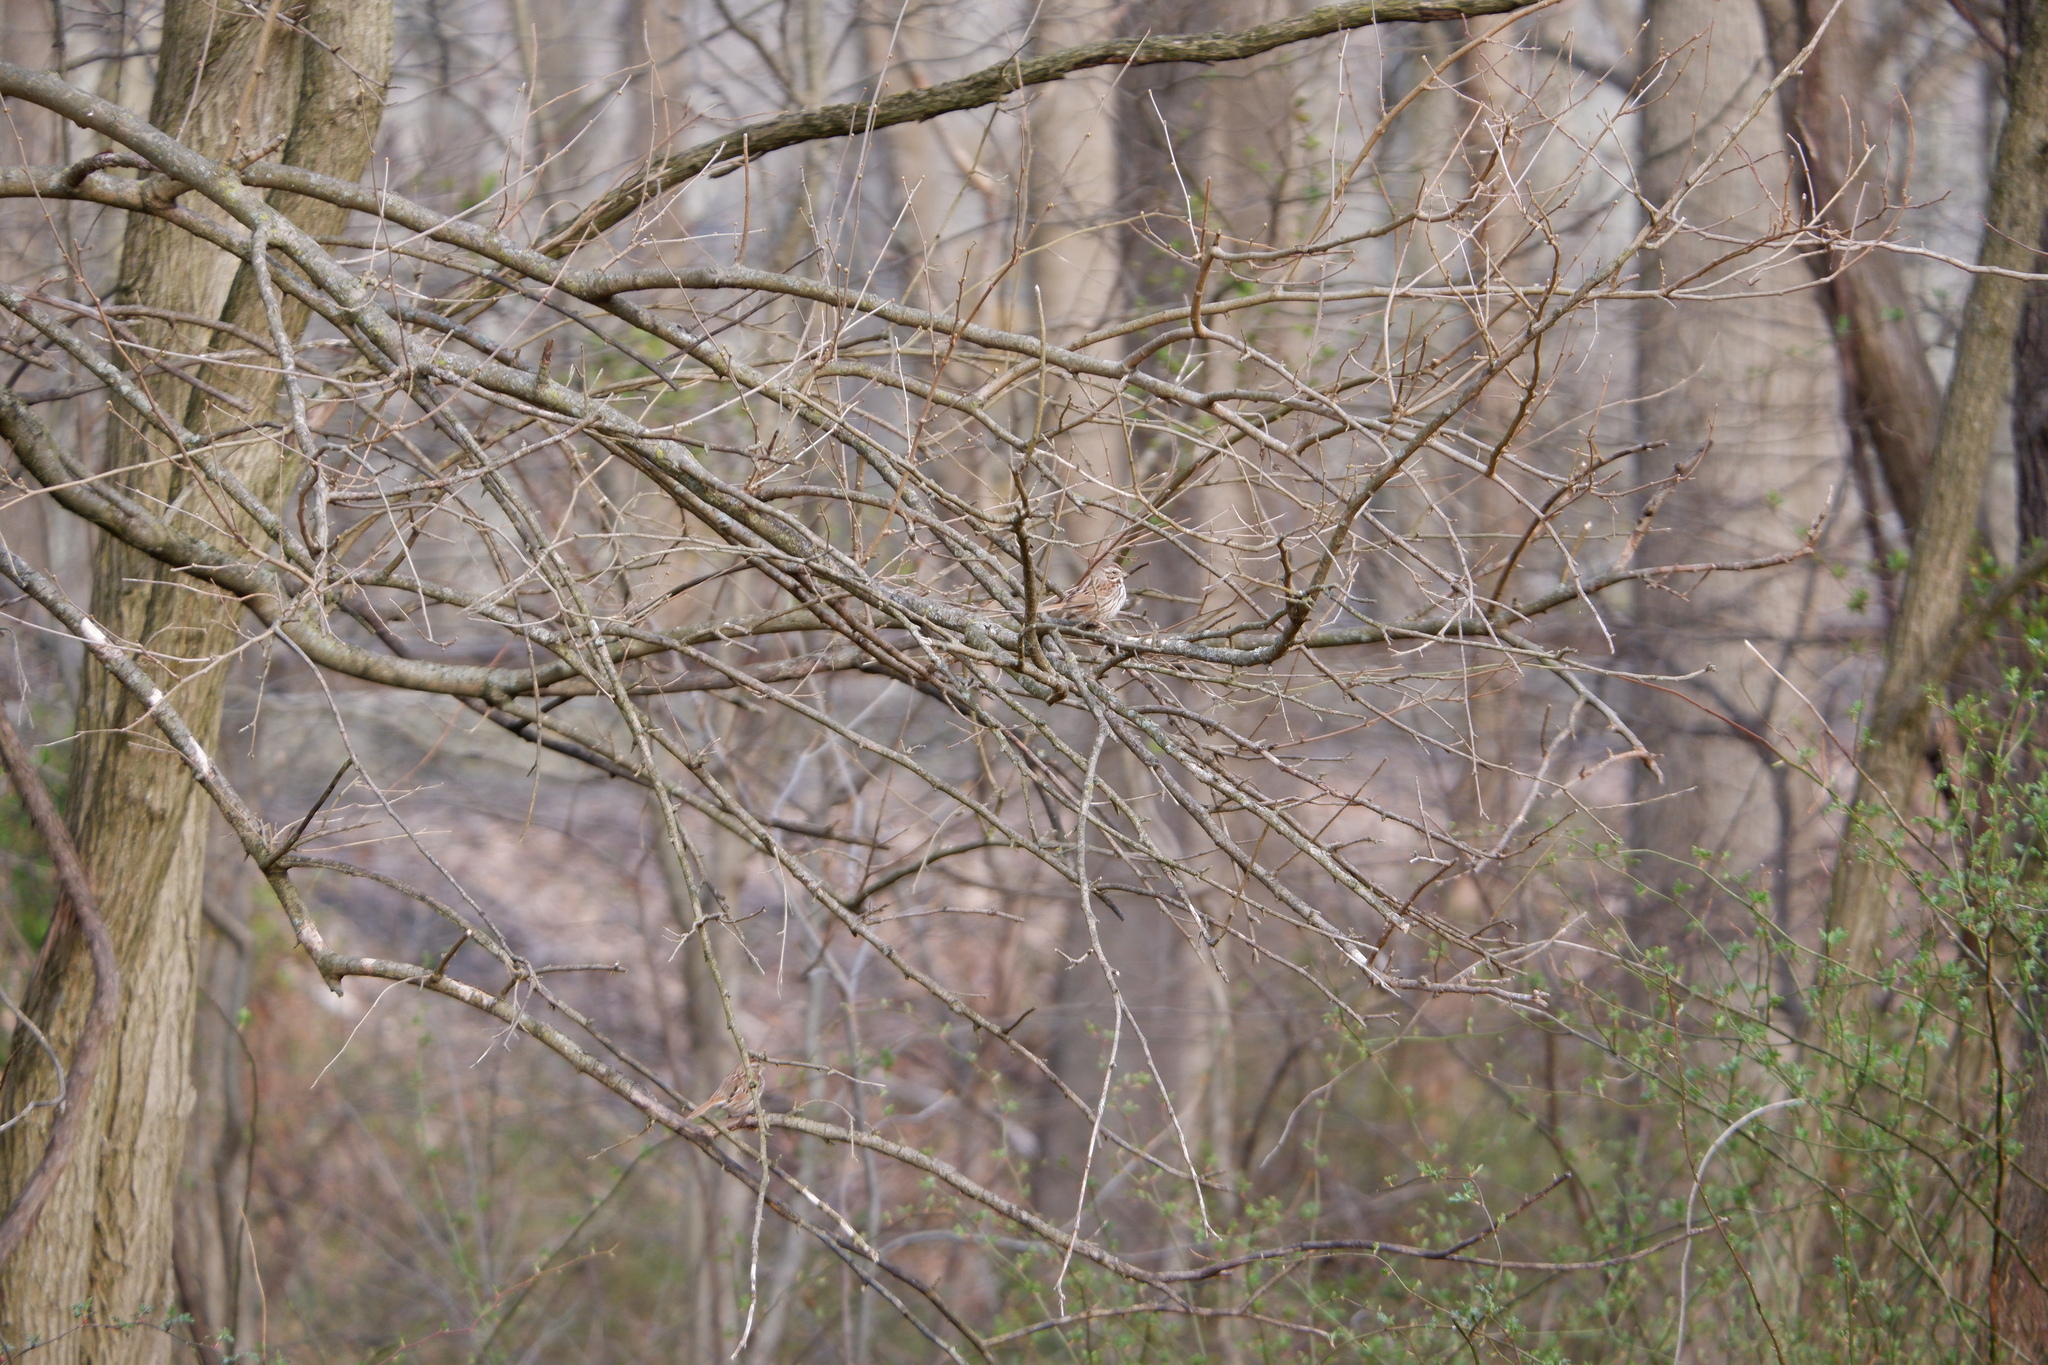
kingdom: Animalia
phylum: Chordata
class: Aves
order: Passeriformes
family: Passerellidae
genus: Melospiza
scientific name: Melospiza melodia
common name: Song sparrow
